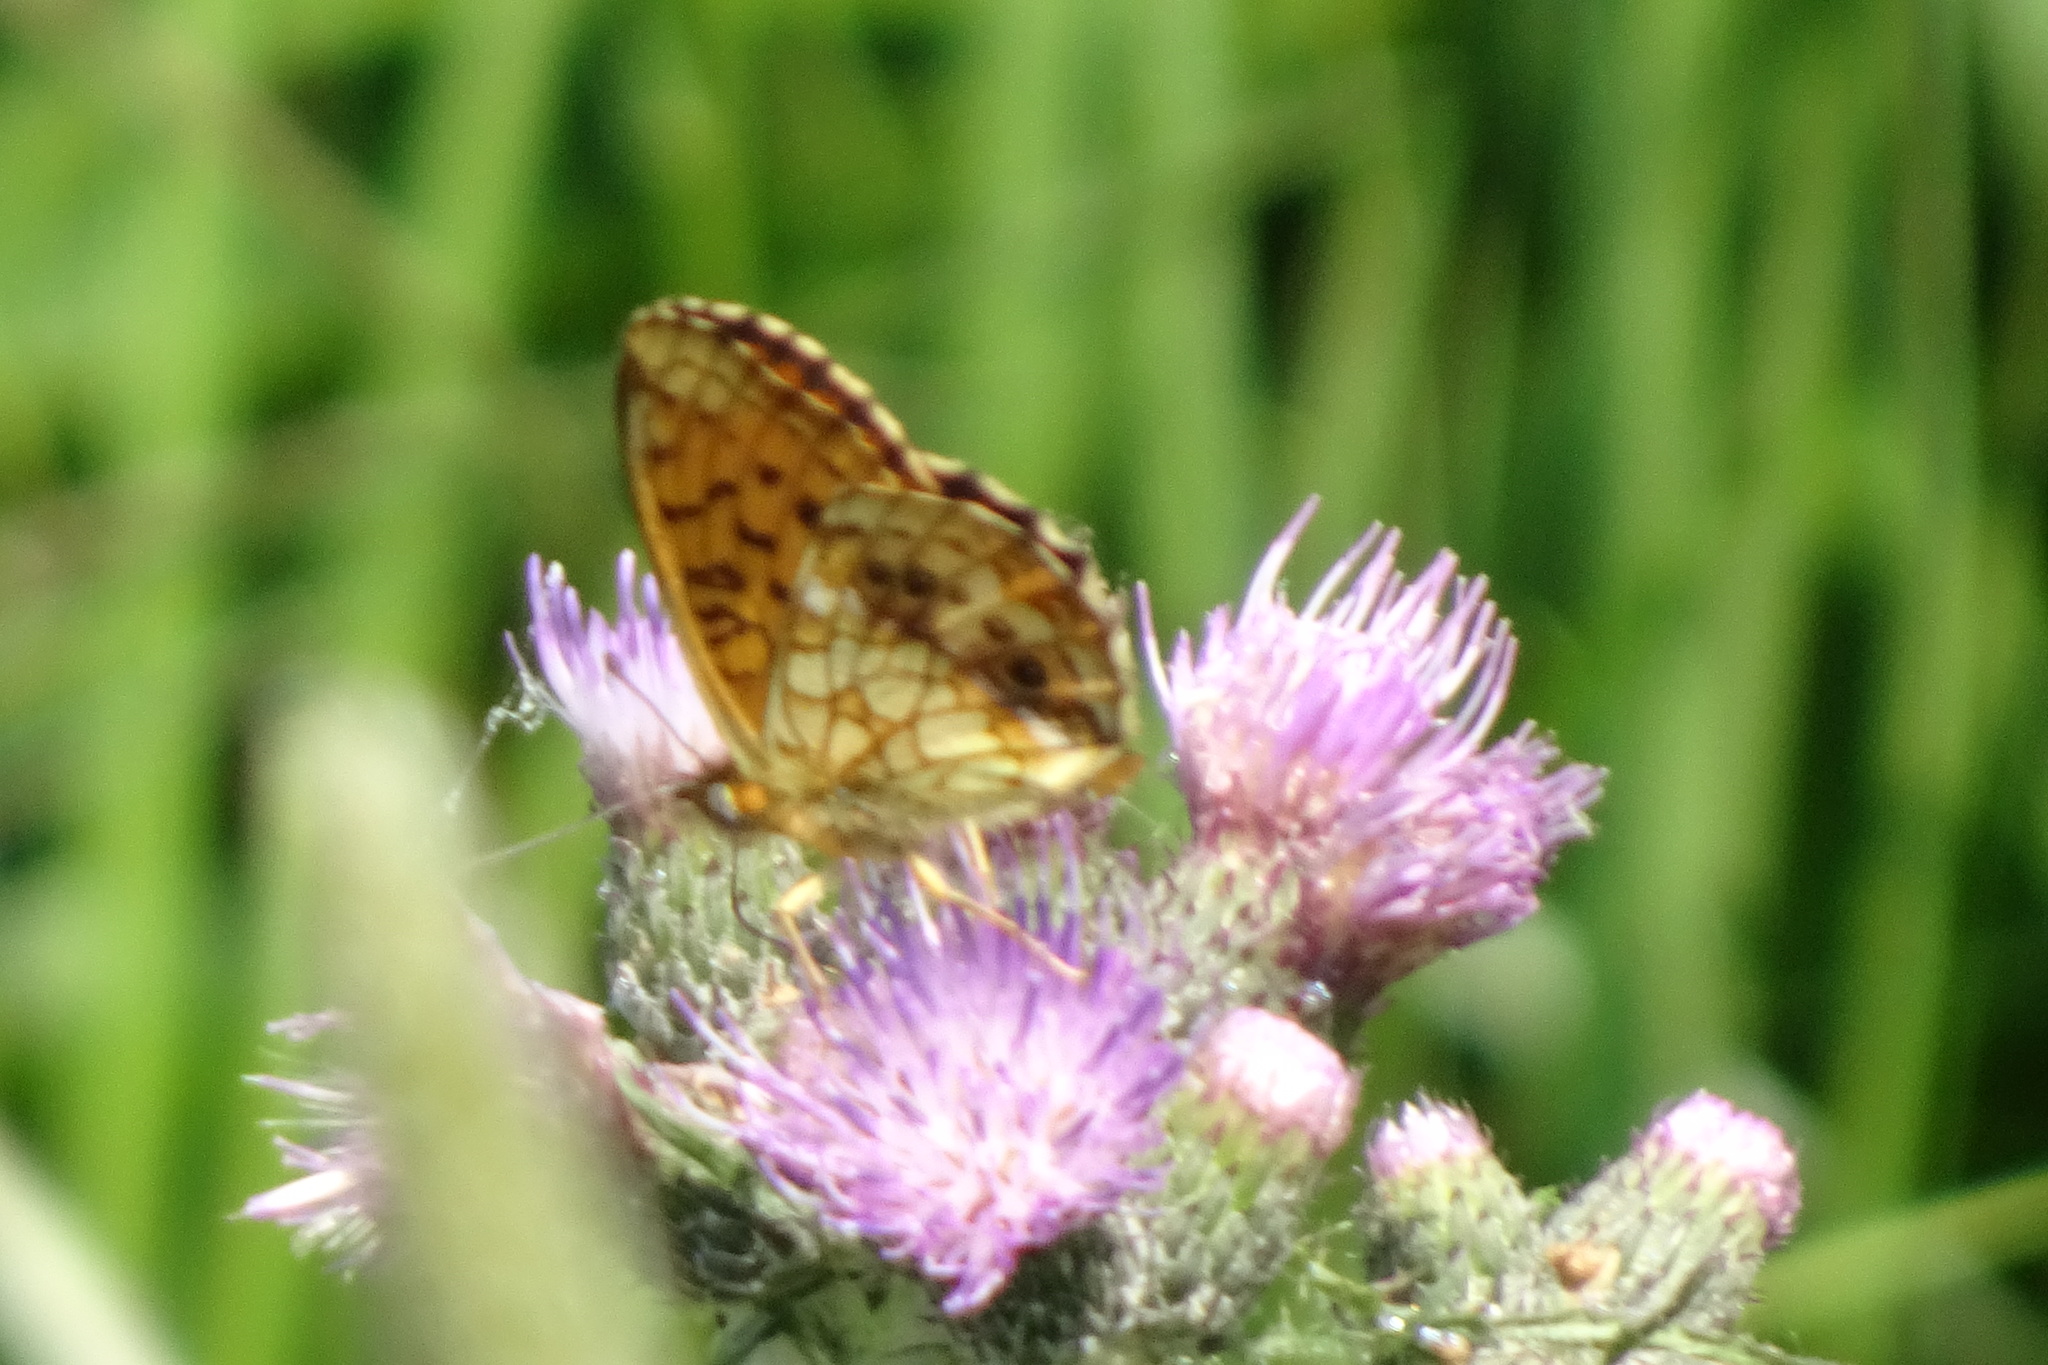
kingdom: Animalia
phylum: Arthropoda
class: Insecta
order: Lepidoptera
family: Nymphalidae
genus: Brenthis
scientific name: Brenthis ino
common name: Lesser marbled fritillary
